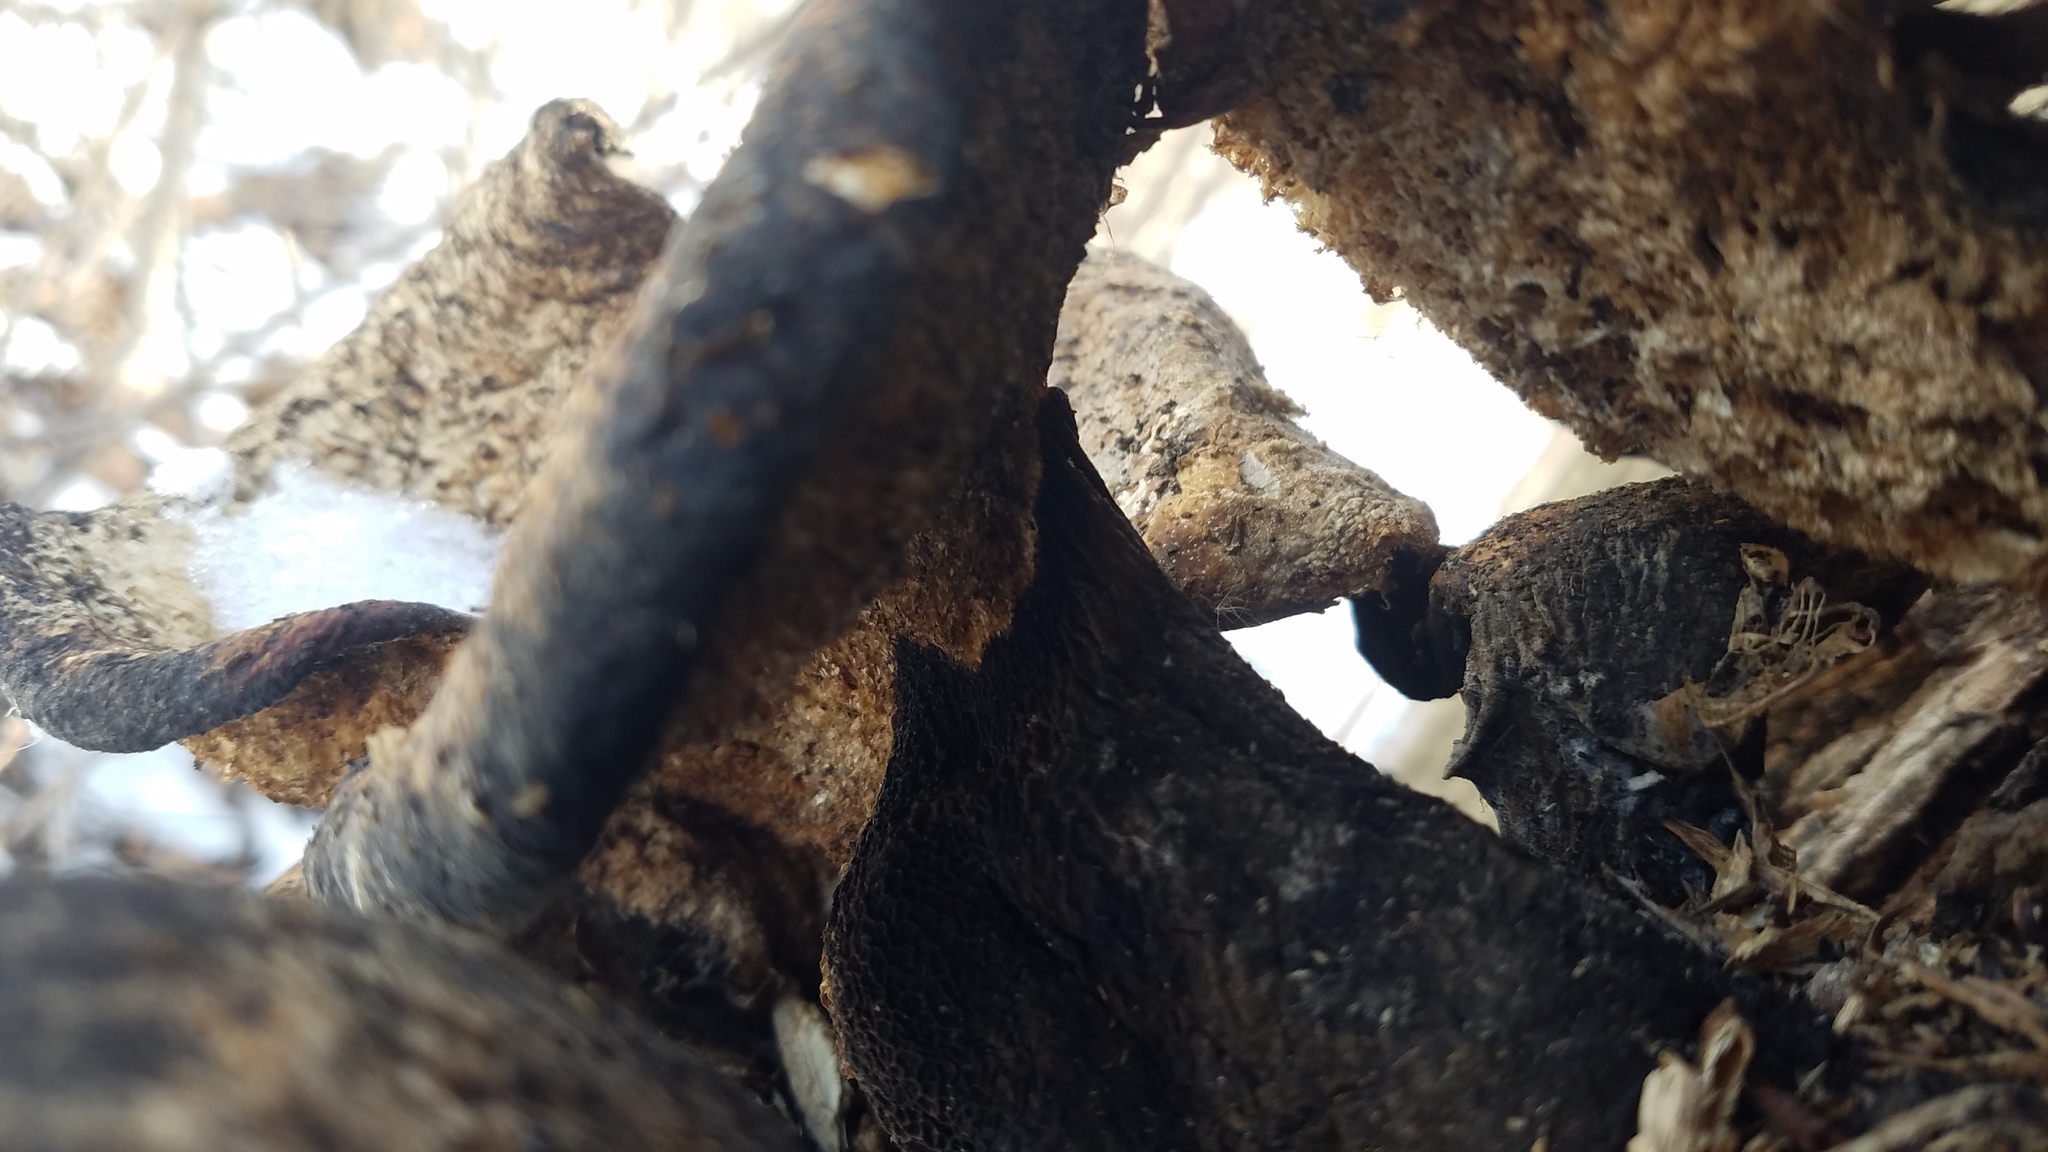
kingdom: Fungi
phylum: Basidiomycota
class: Agaricomycetes
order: Polyporales
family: Polyporaceae
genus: Cerioporus
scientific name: Cerioporus squamosus
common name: Dryad's saddle
